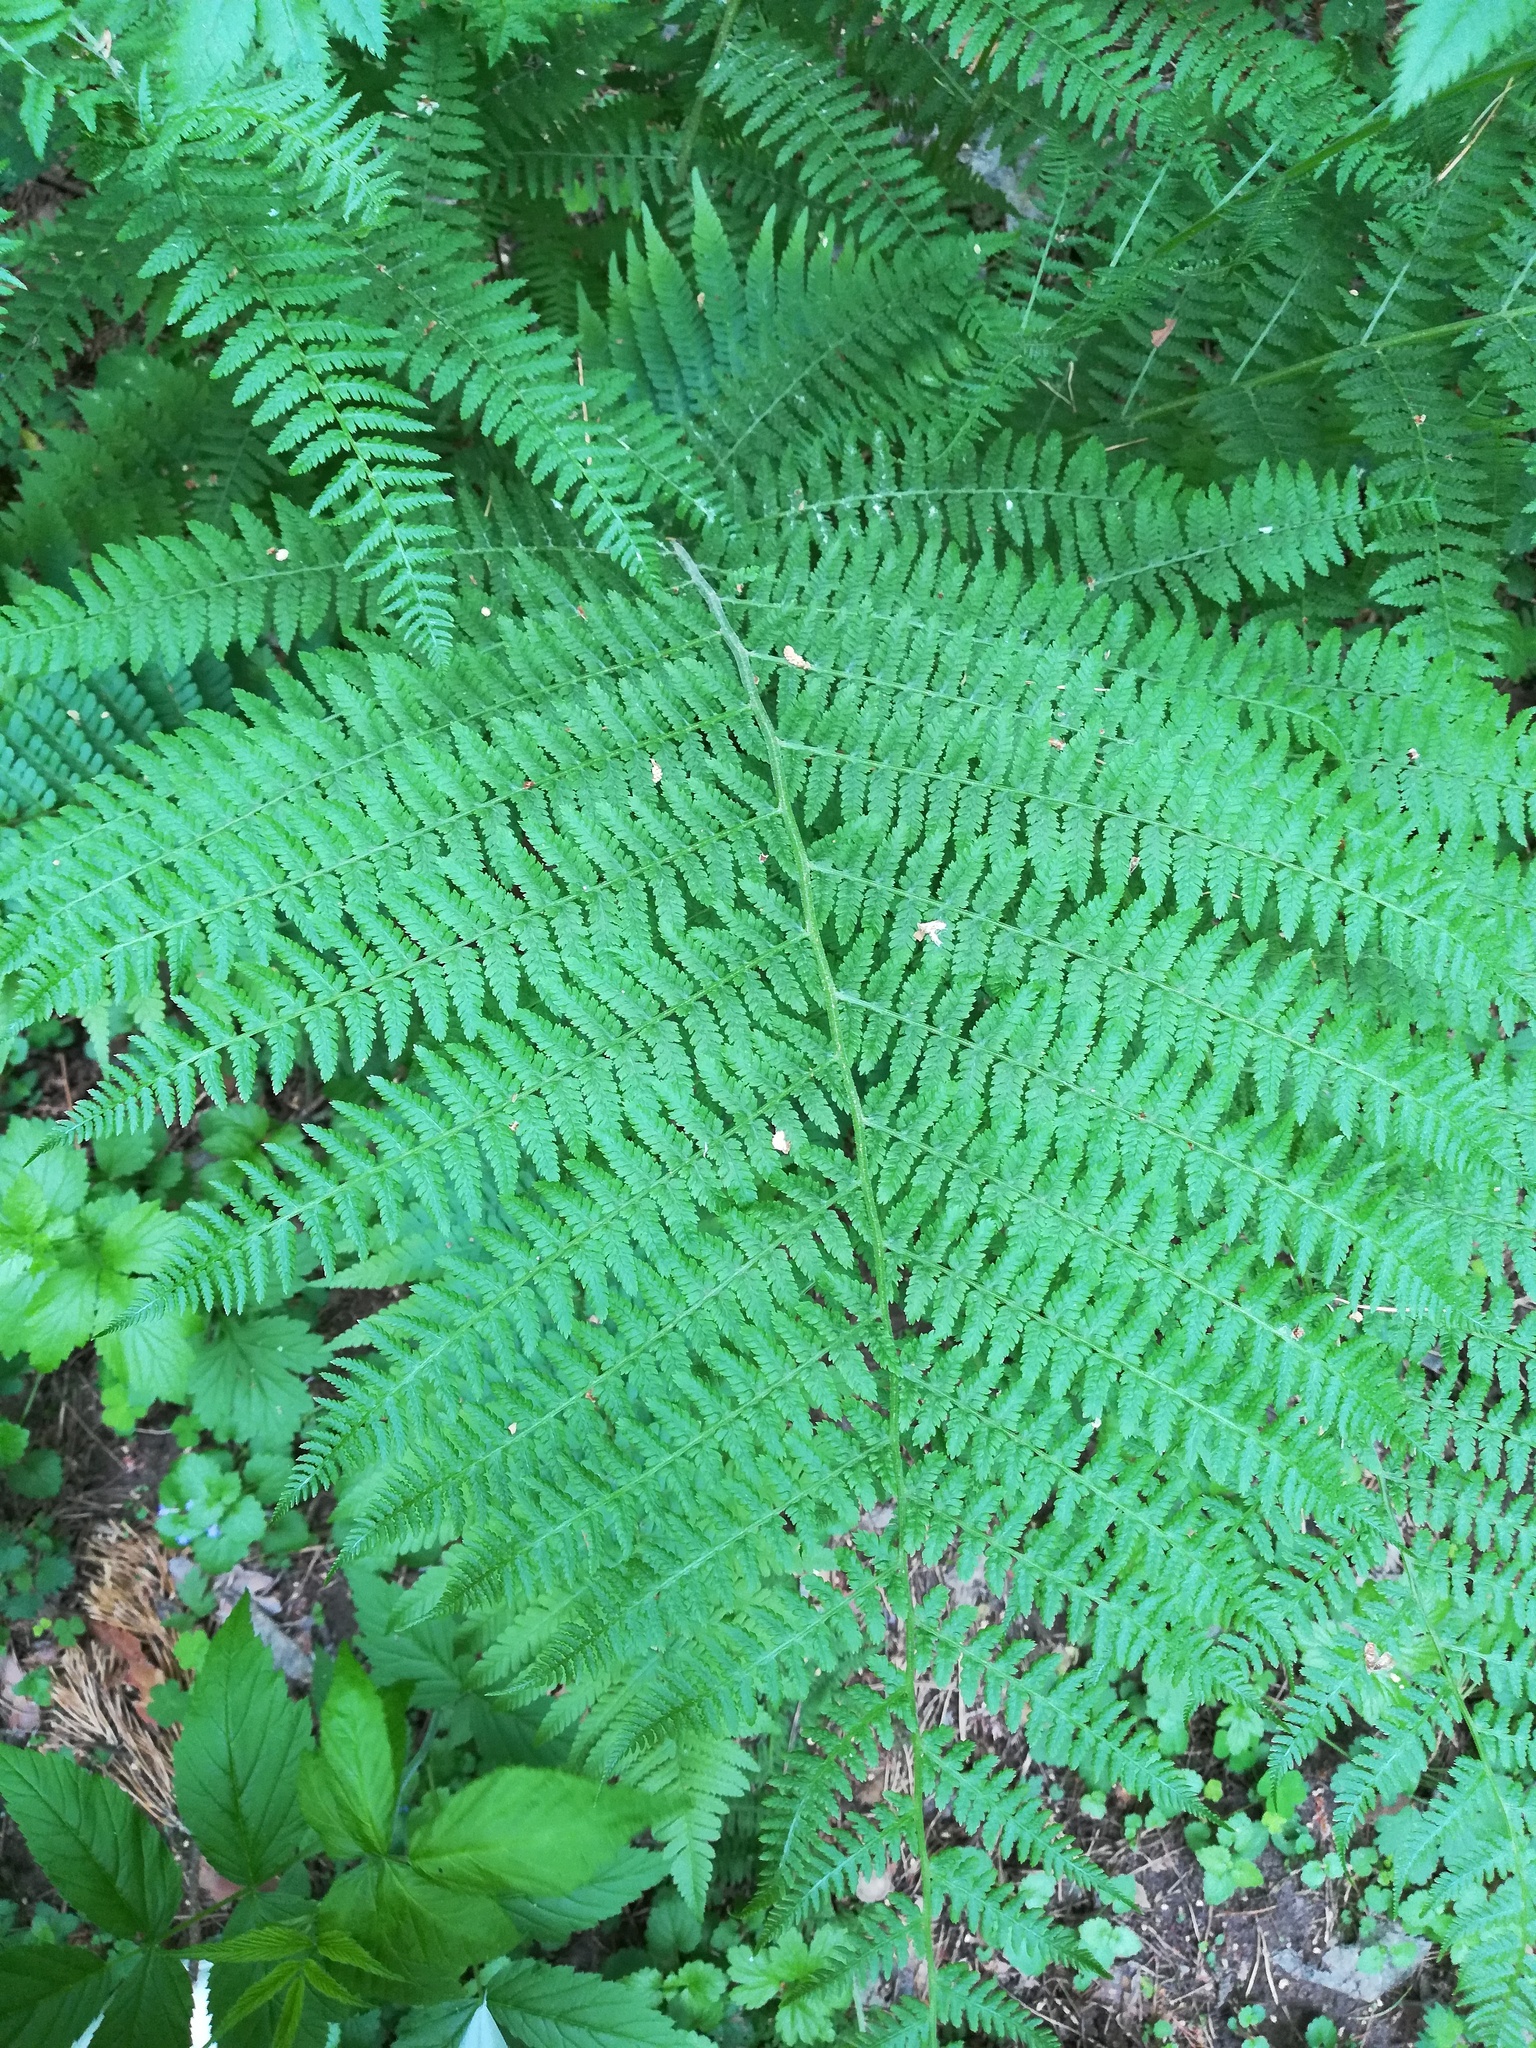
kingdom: Plantae
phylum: Tracheophyta
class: Polypodiopsida
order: Polypodiales
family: Athyriaceae
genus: Athyrium
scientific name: Athyrium filix-femina
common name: Lady fern
